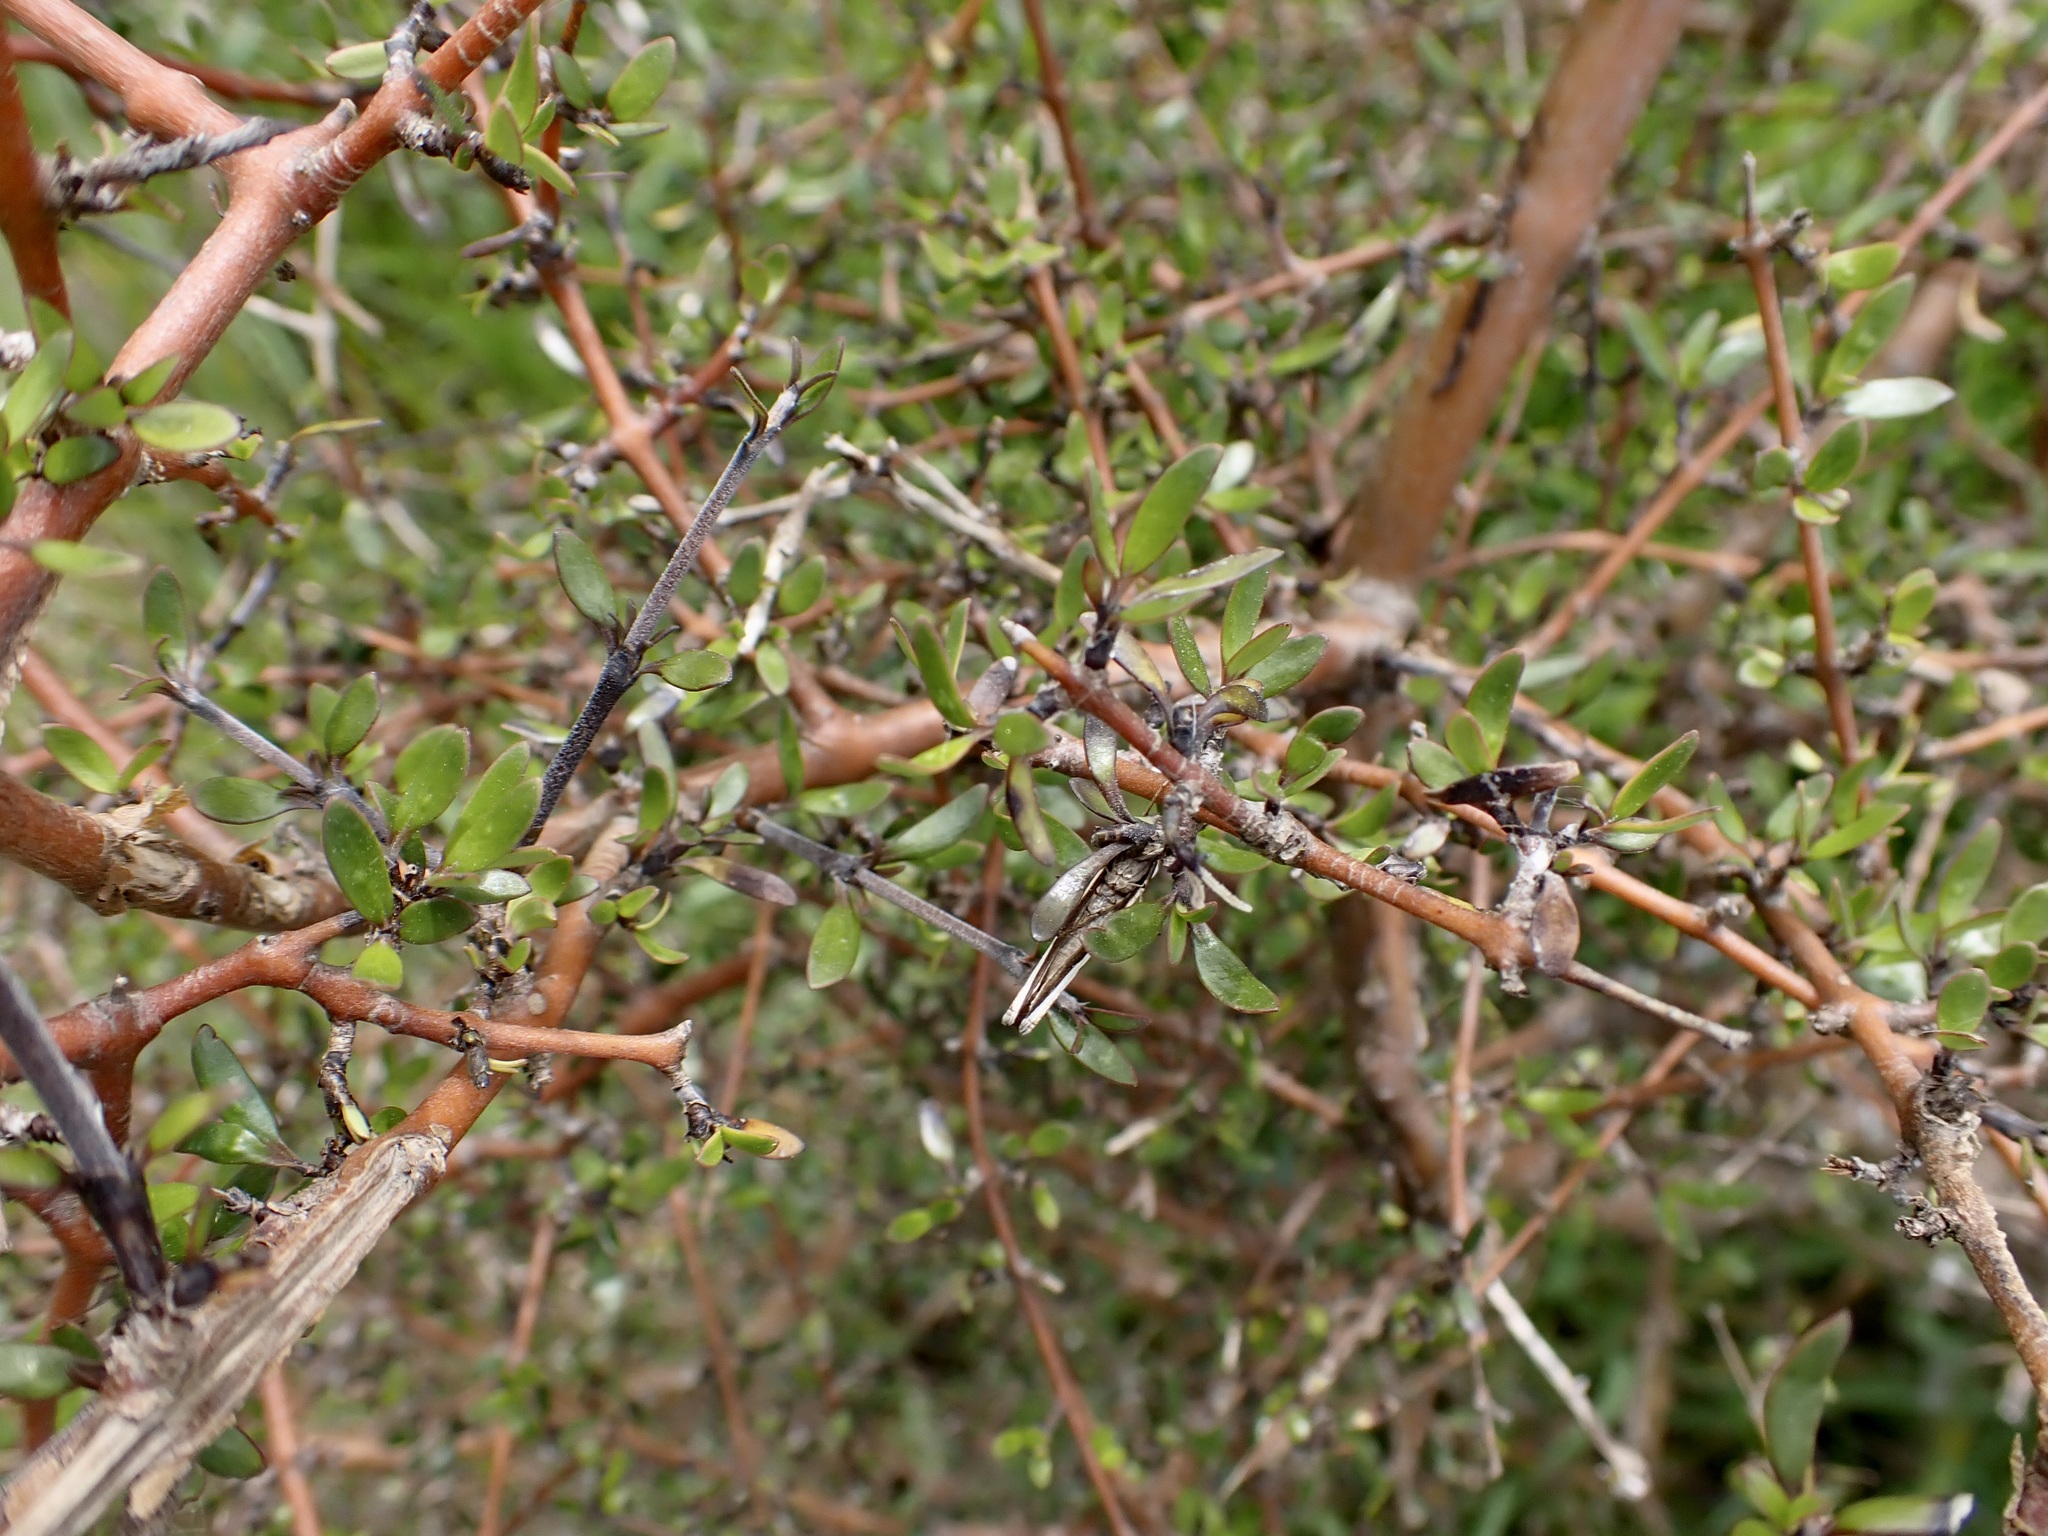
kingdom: Plantae
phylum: Tracheophyta
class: Magnoliopsida
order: Gentianales
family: Rubiaceae
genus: Coprosma
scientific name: Coprosma propinqua
